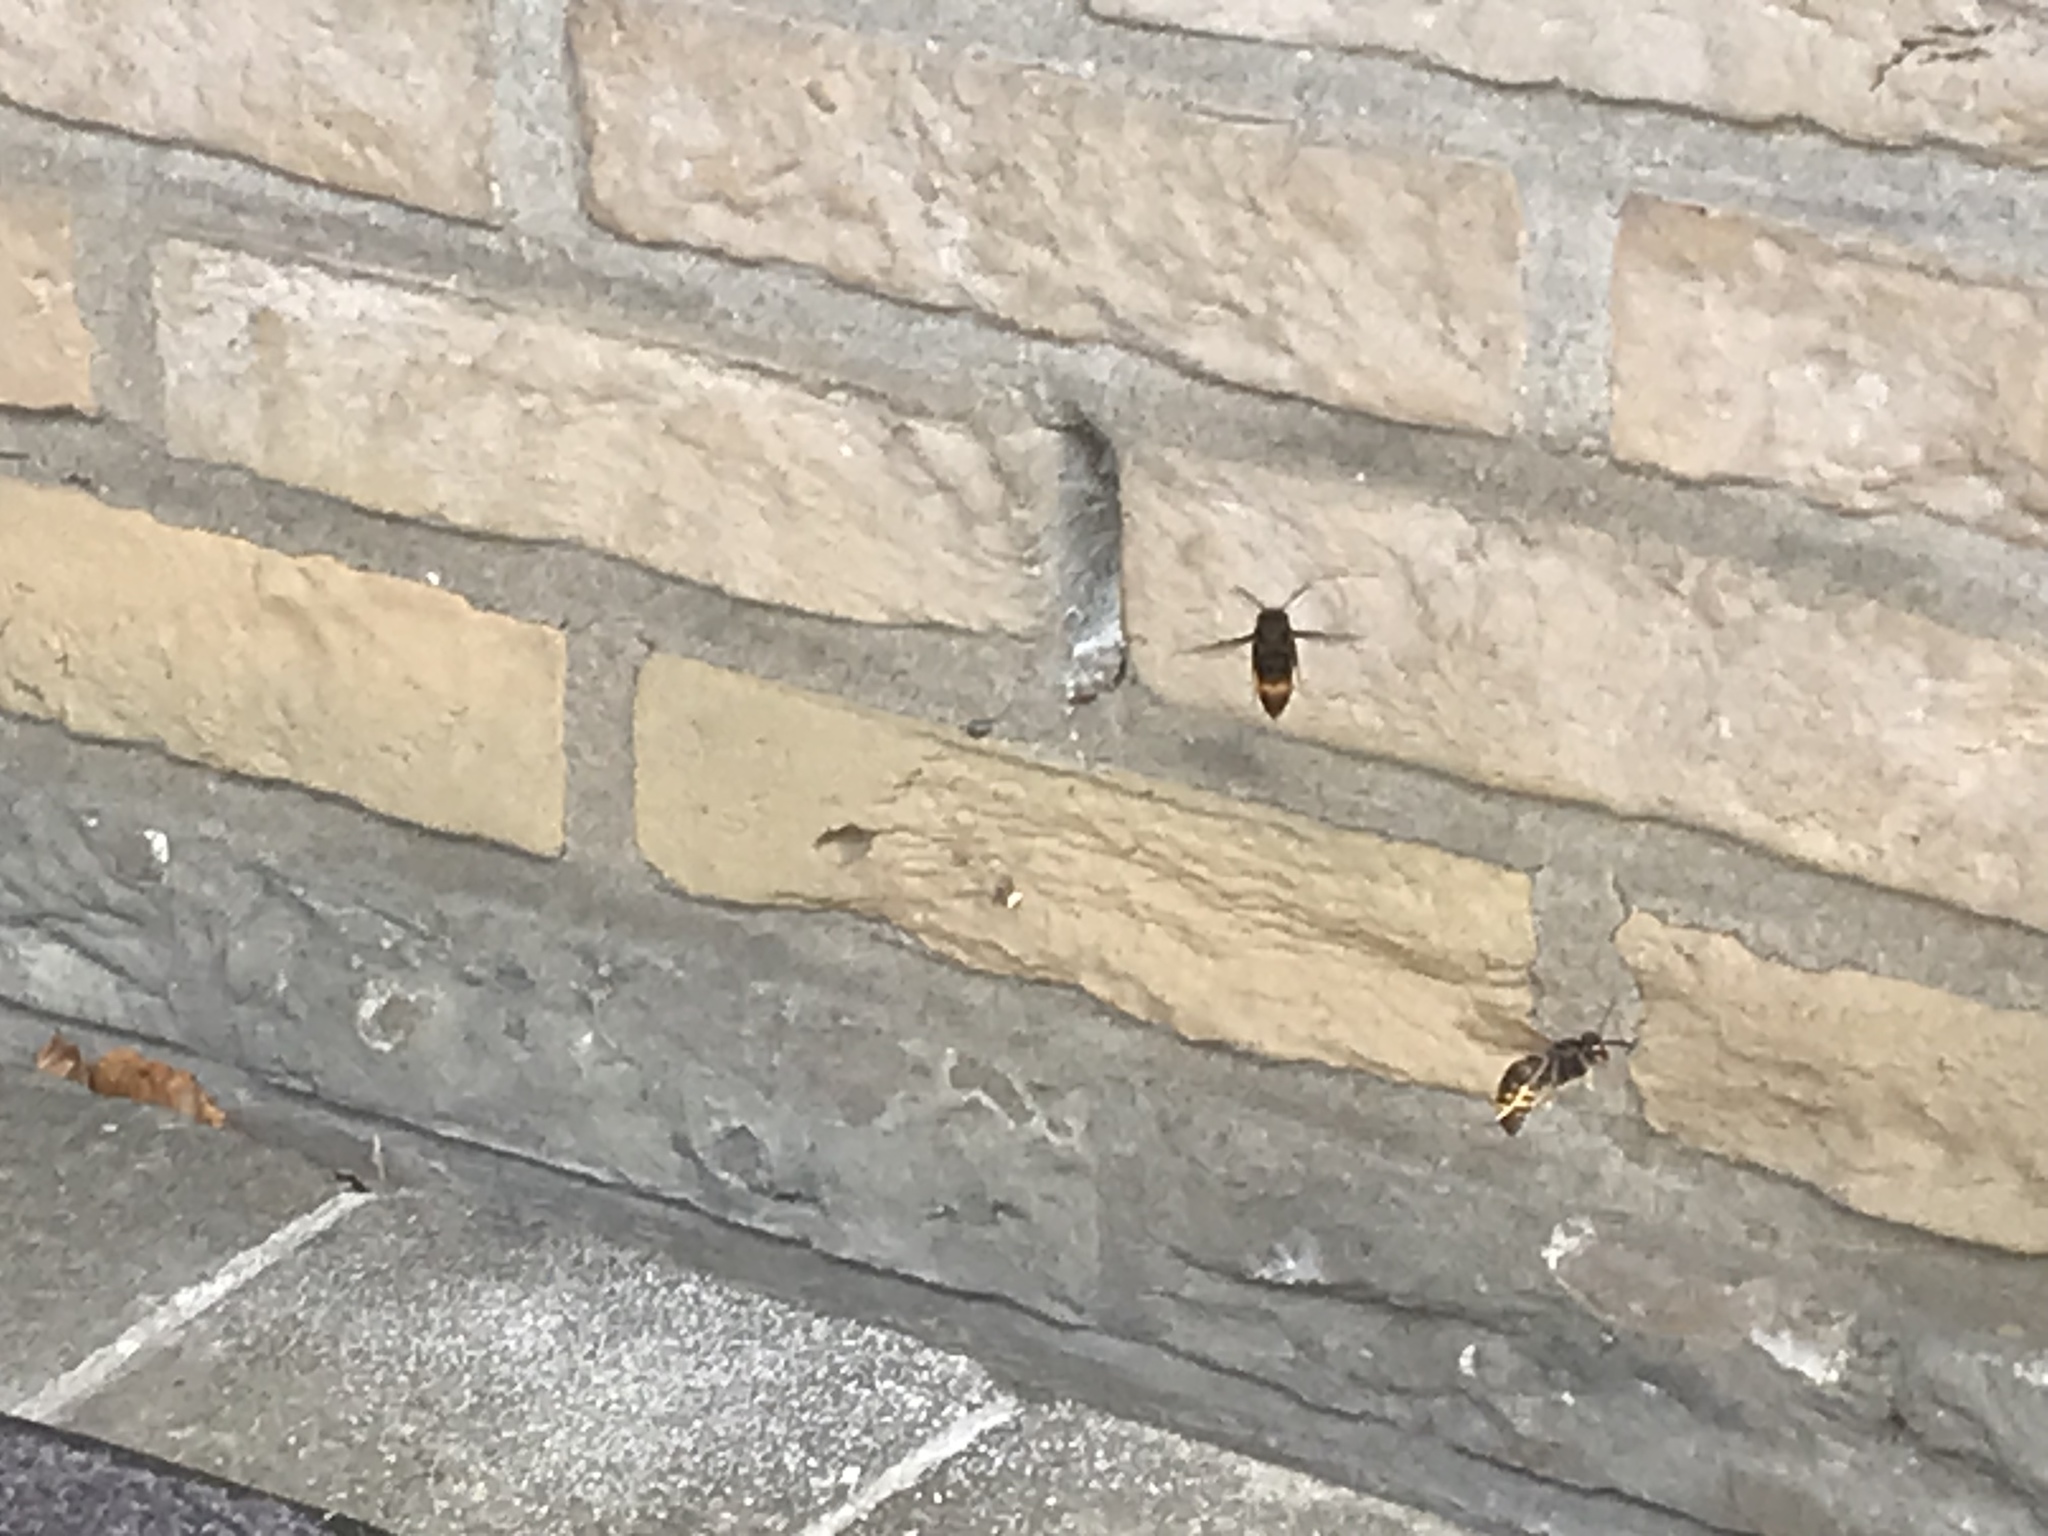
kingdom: Animalia
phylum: Arthropoda
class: Insecta
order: Hymenoptera
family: Vespidae
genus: Vespa
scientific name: Vespa velutina
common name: Asian hornet
